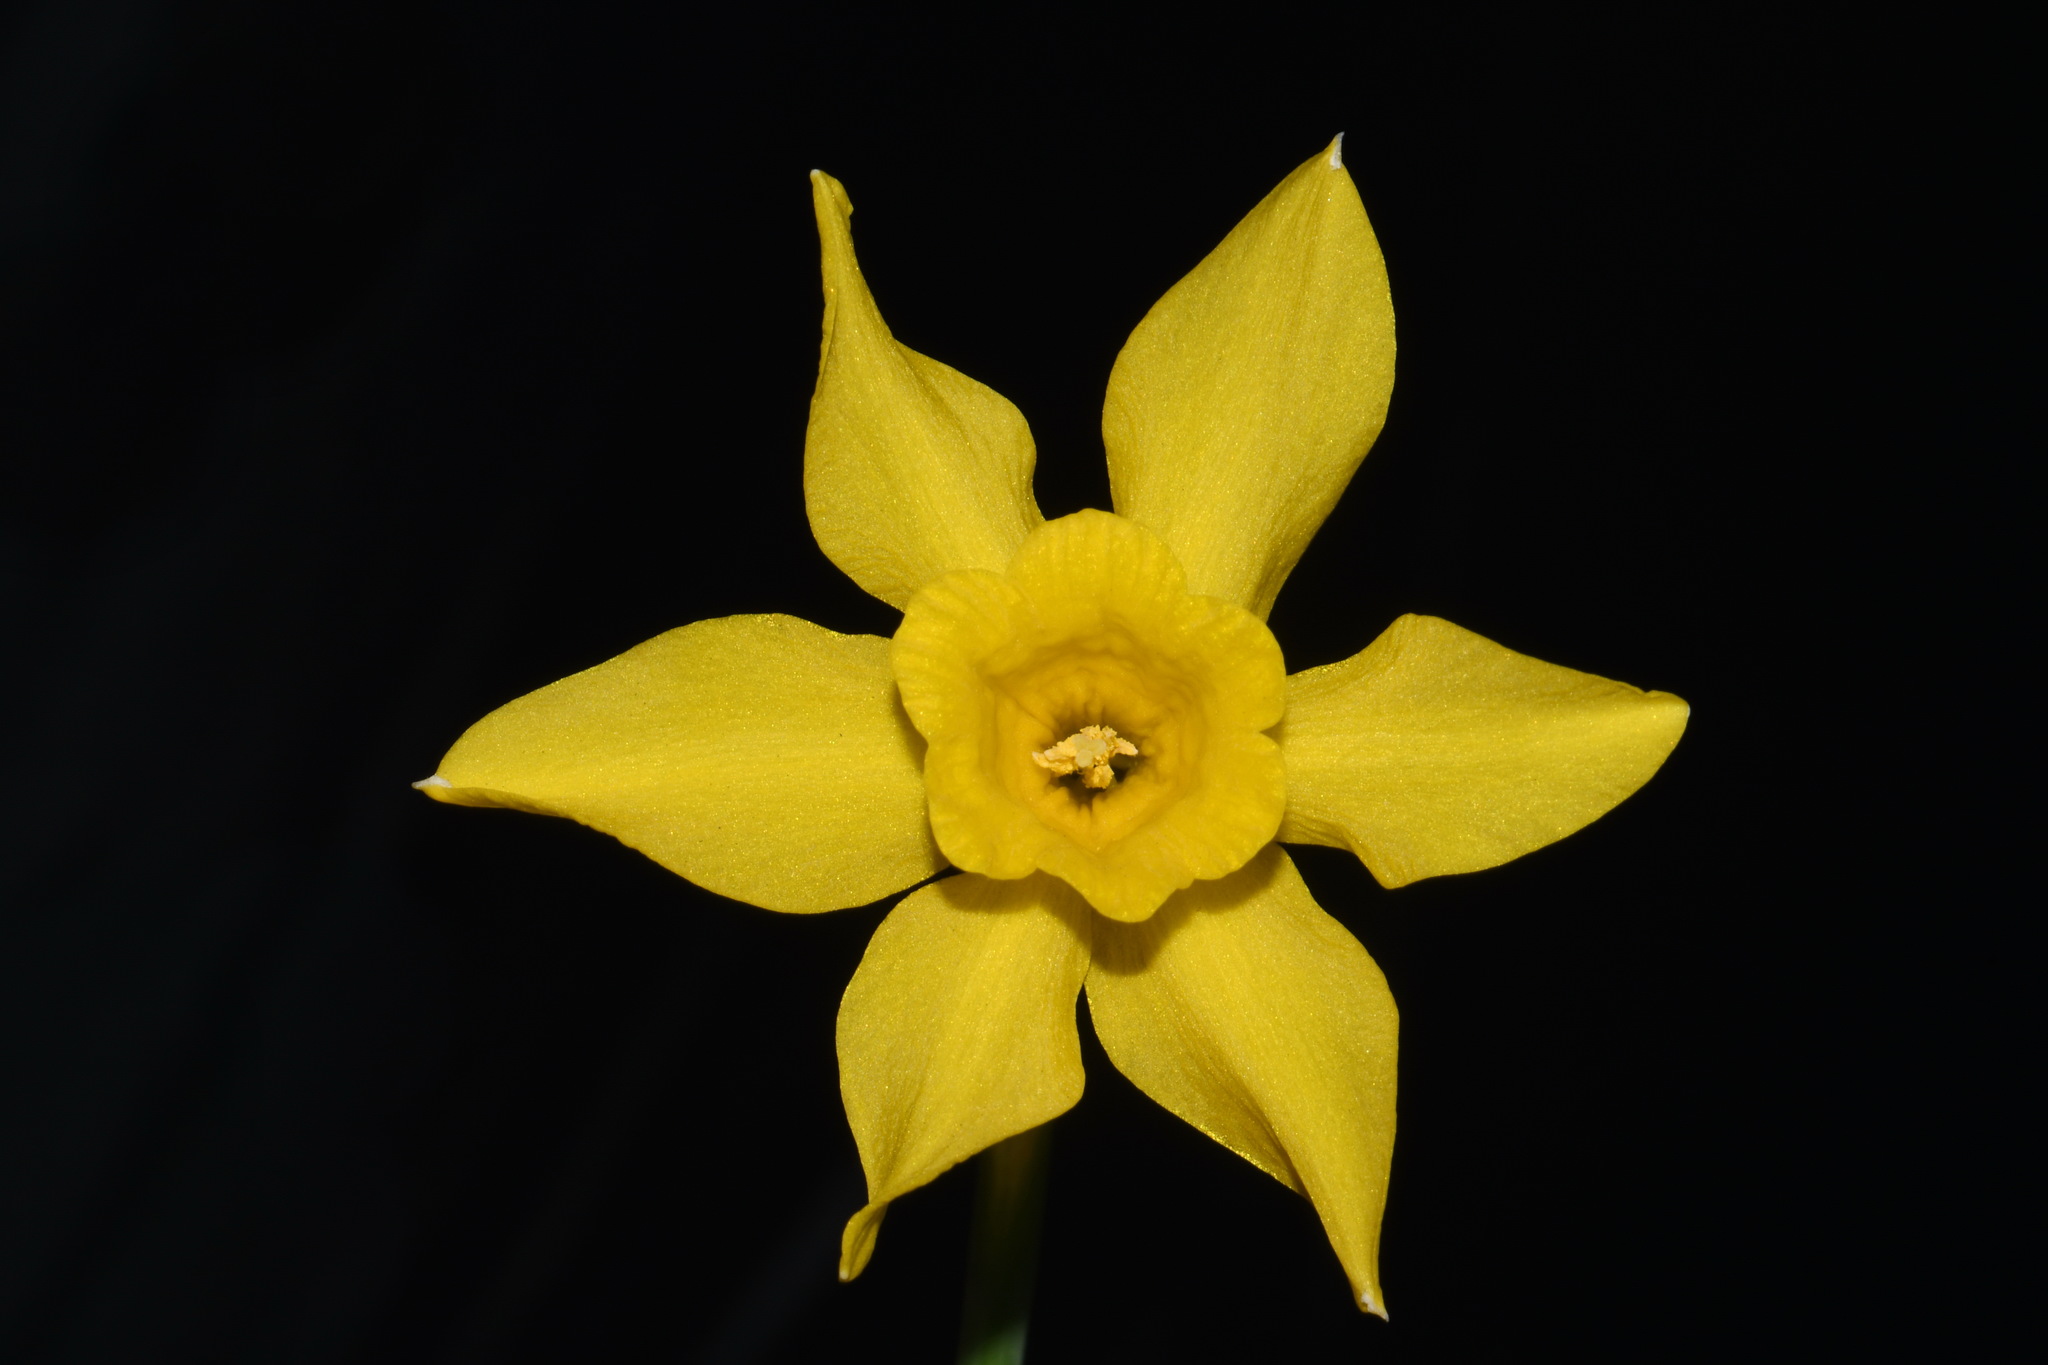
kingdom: Plantae
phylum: Tracheophyta
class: Liliopsida
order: Asparagales
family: Amaryllidaceae
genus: Narcissus
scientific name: Narcissus odorus
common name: Campernelle jonquil
